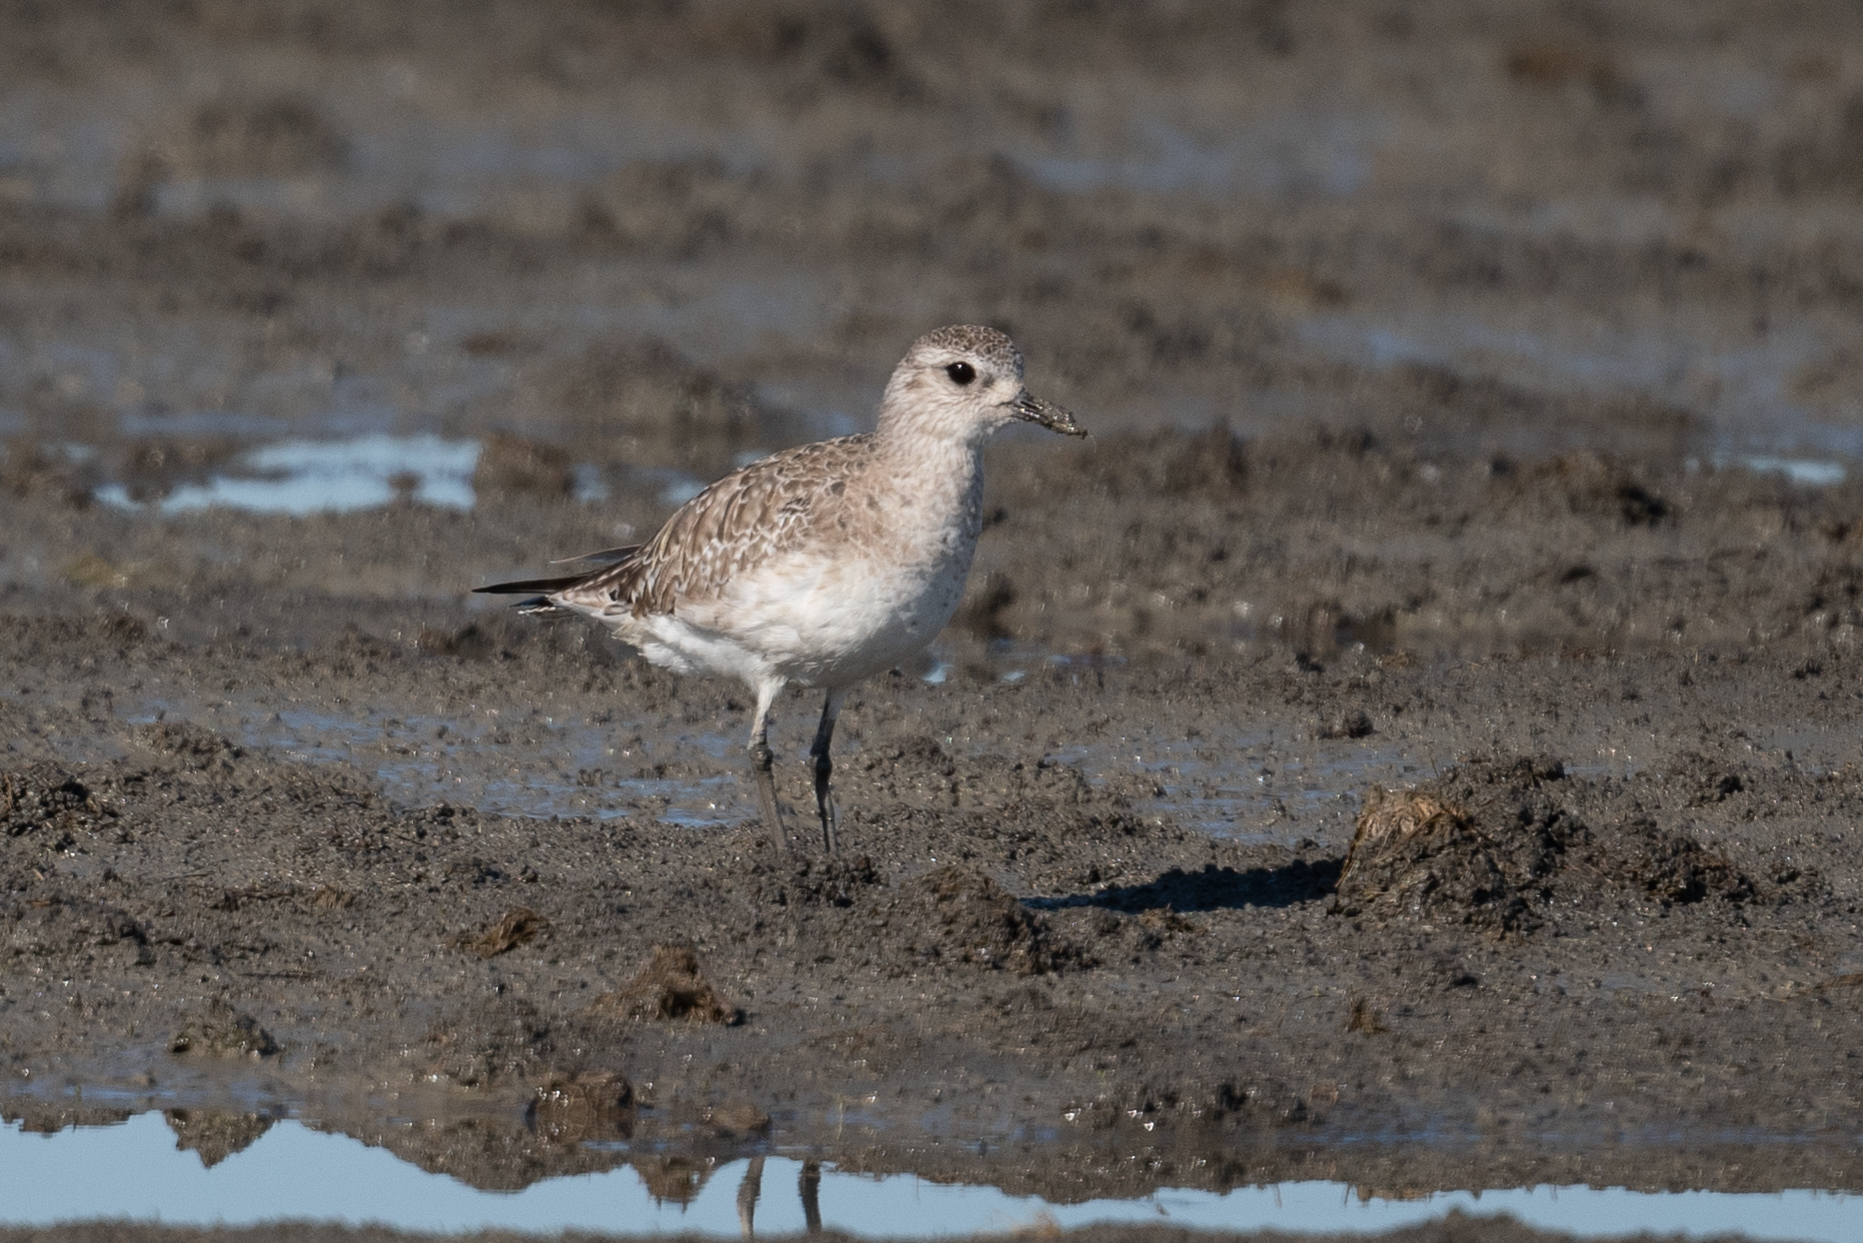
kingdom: Animalia
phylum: Chordata
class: Aves
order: Charadriiformes
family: Charadriidae
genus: Pluvialis
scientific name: Pluvialis squatarola
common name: Grey plover
